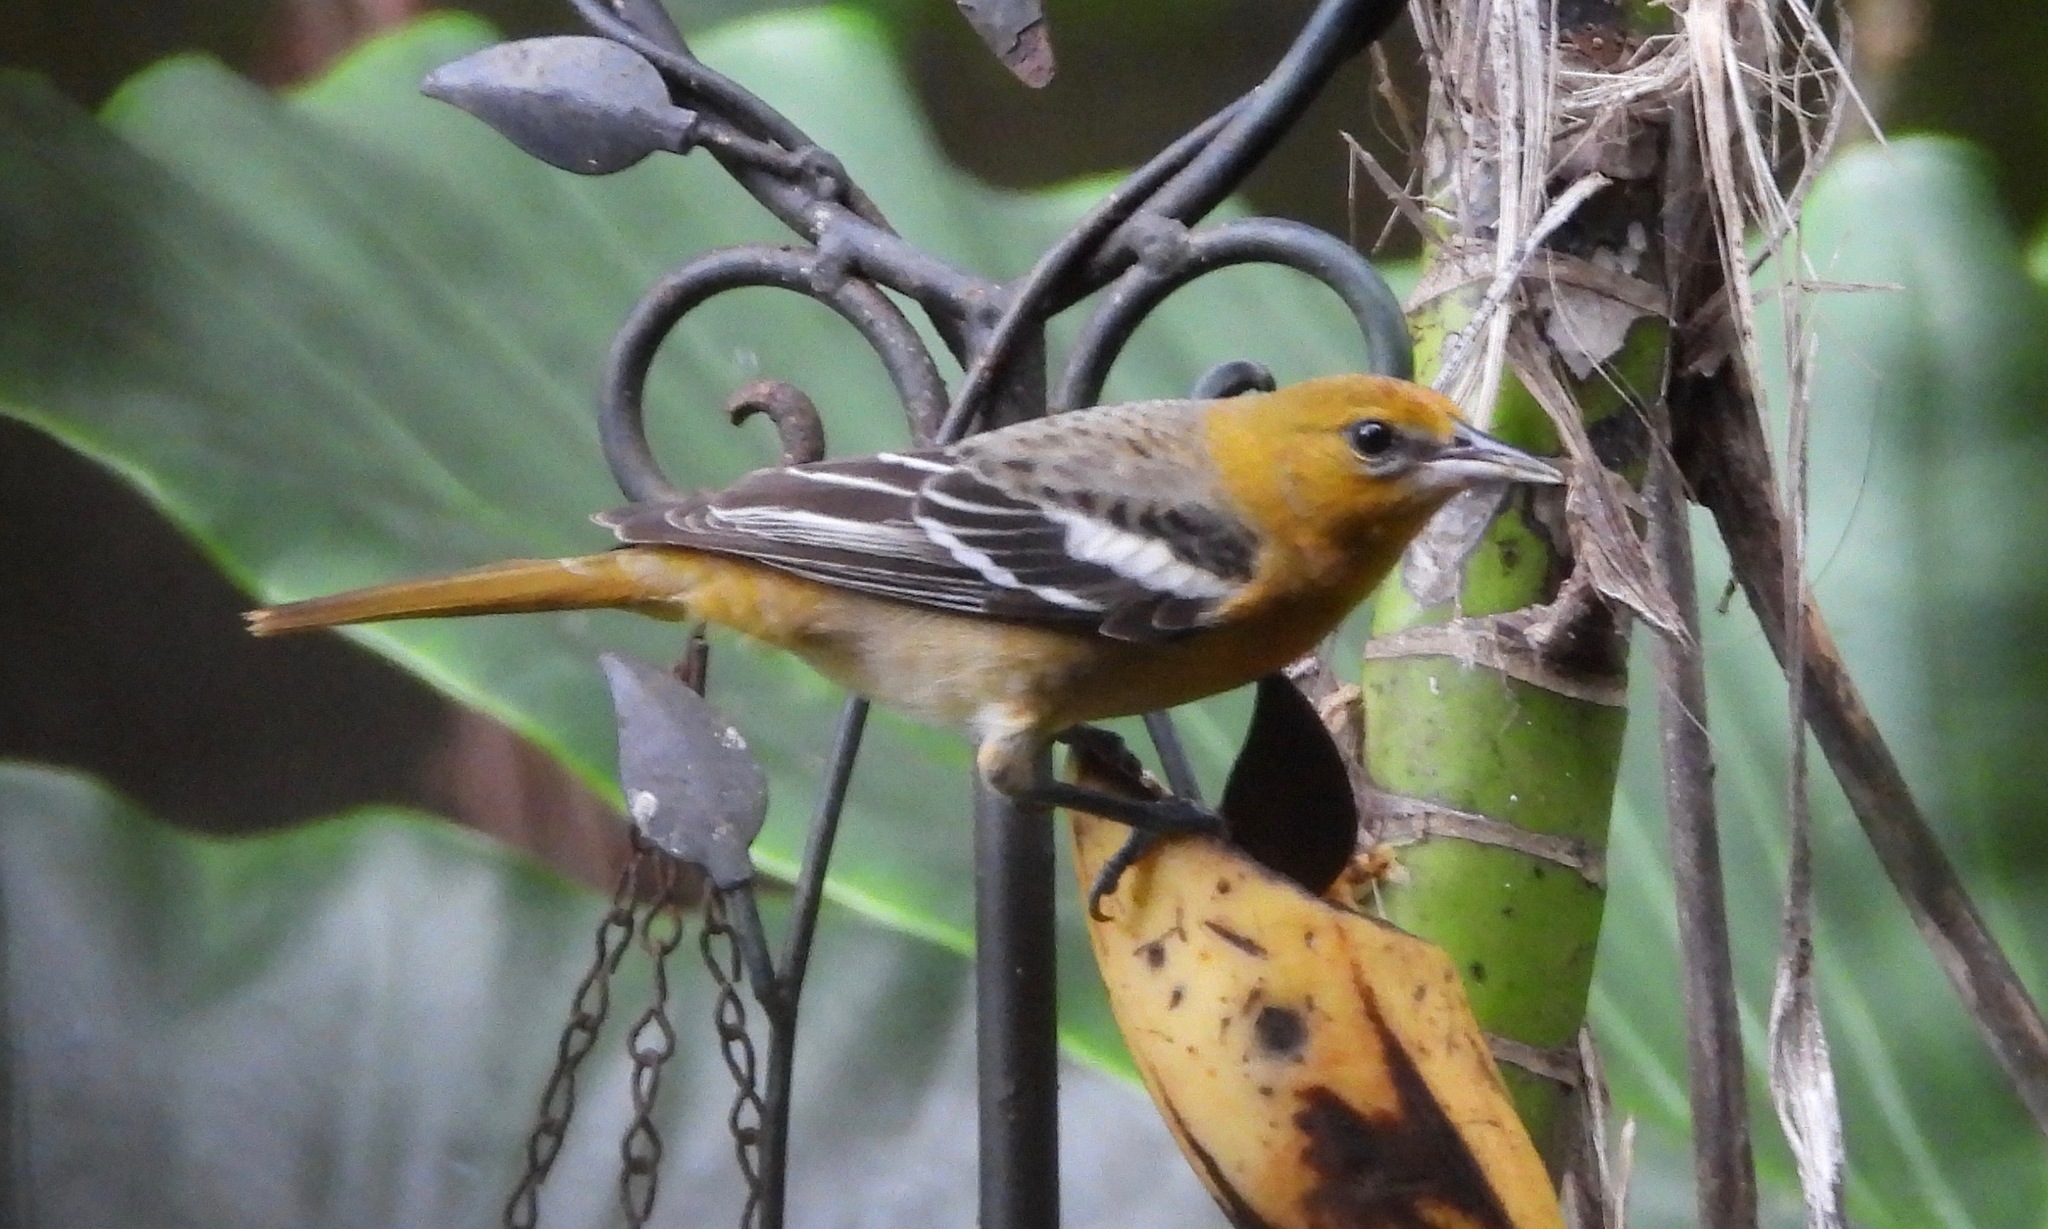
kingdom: Animalia
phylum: Chordata
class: Aves
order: Passeriformes
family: Icteridae
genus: Icterus
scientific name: Icterus galbula
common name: Baltimore oriole
